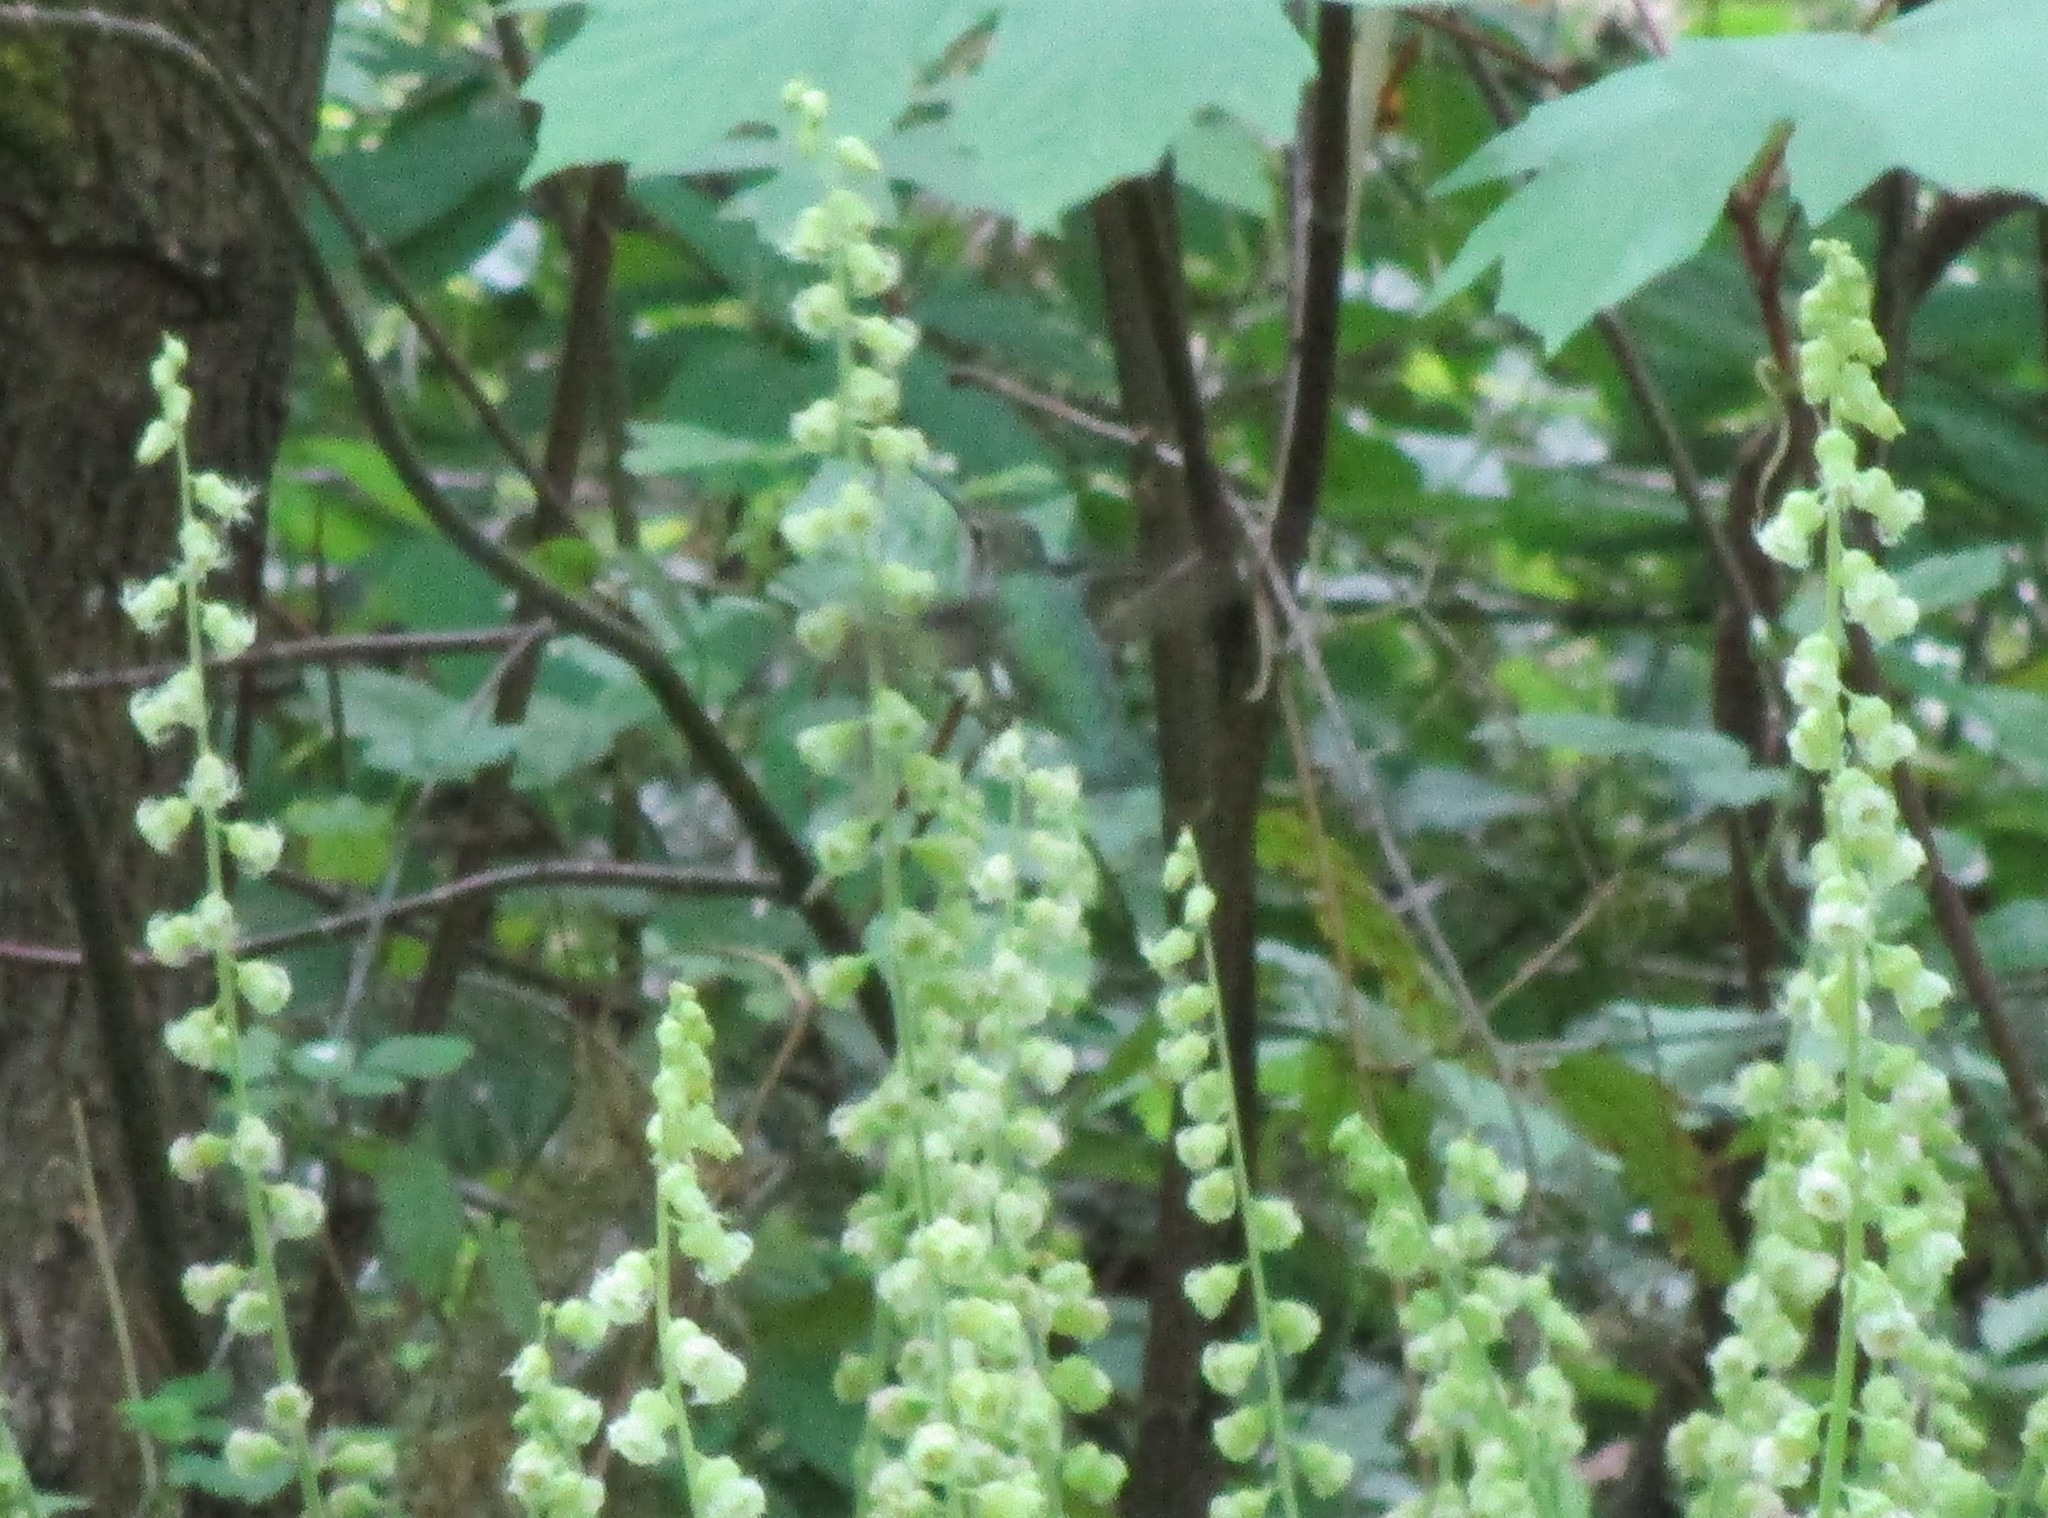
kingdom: Animalia
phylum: Chordata
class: Aves
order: Apodiformes
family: Trochilidae
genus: Calypte
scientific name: Calypte anna
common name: Anna's hummingbird
